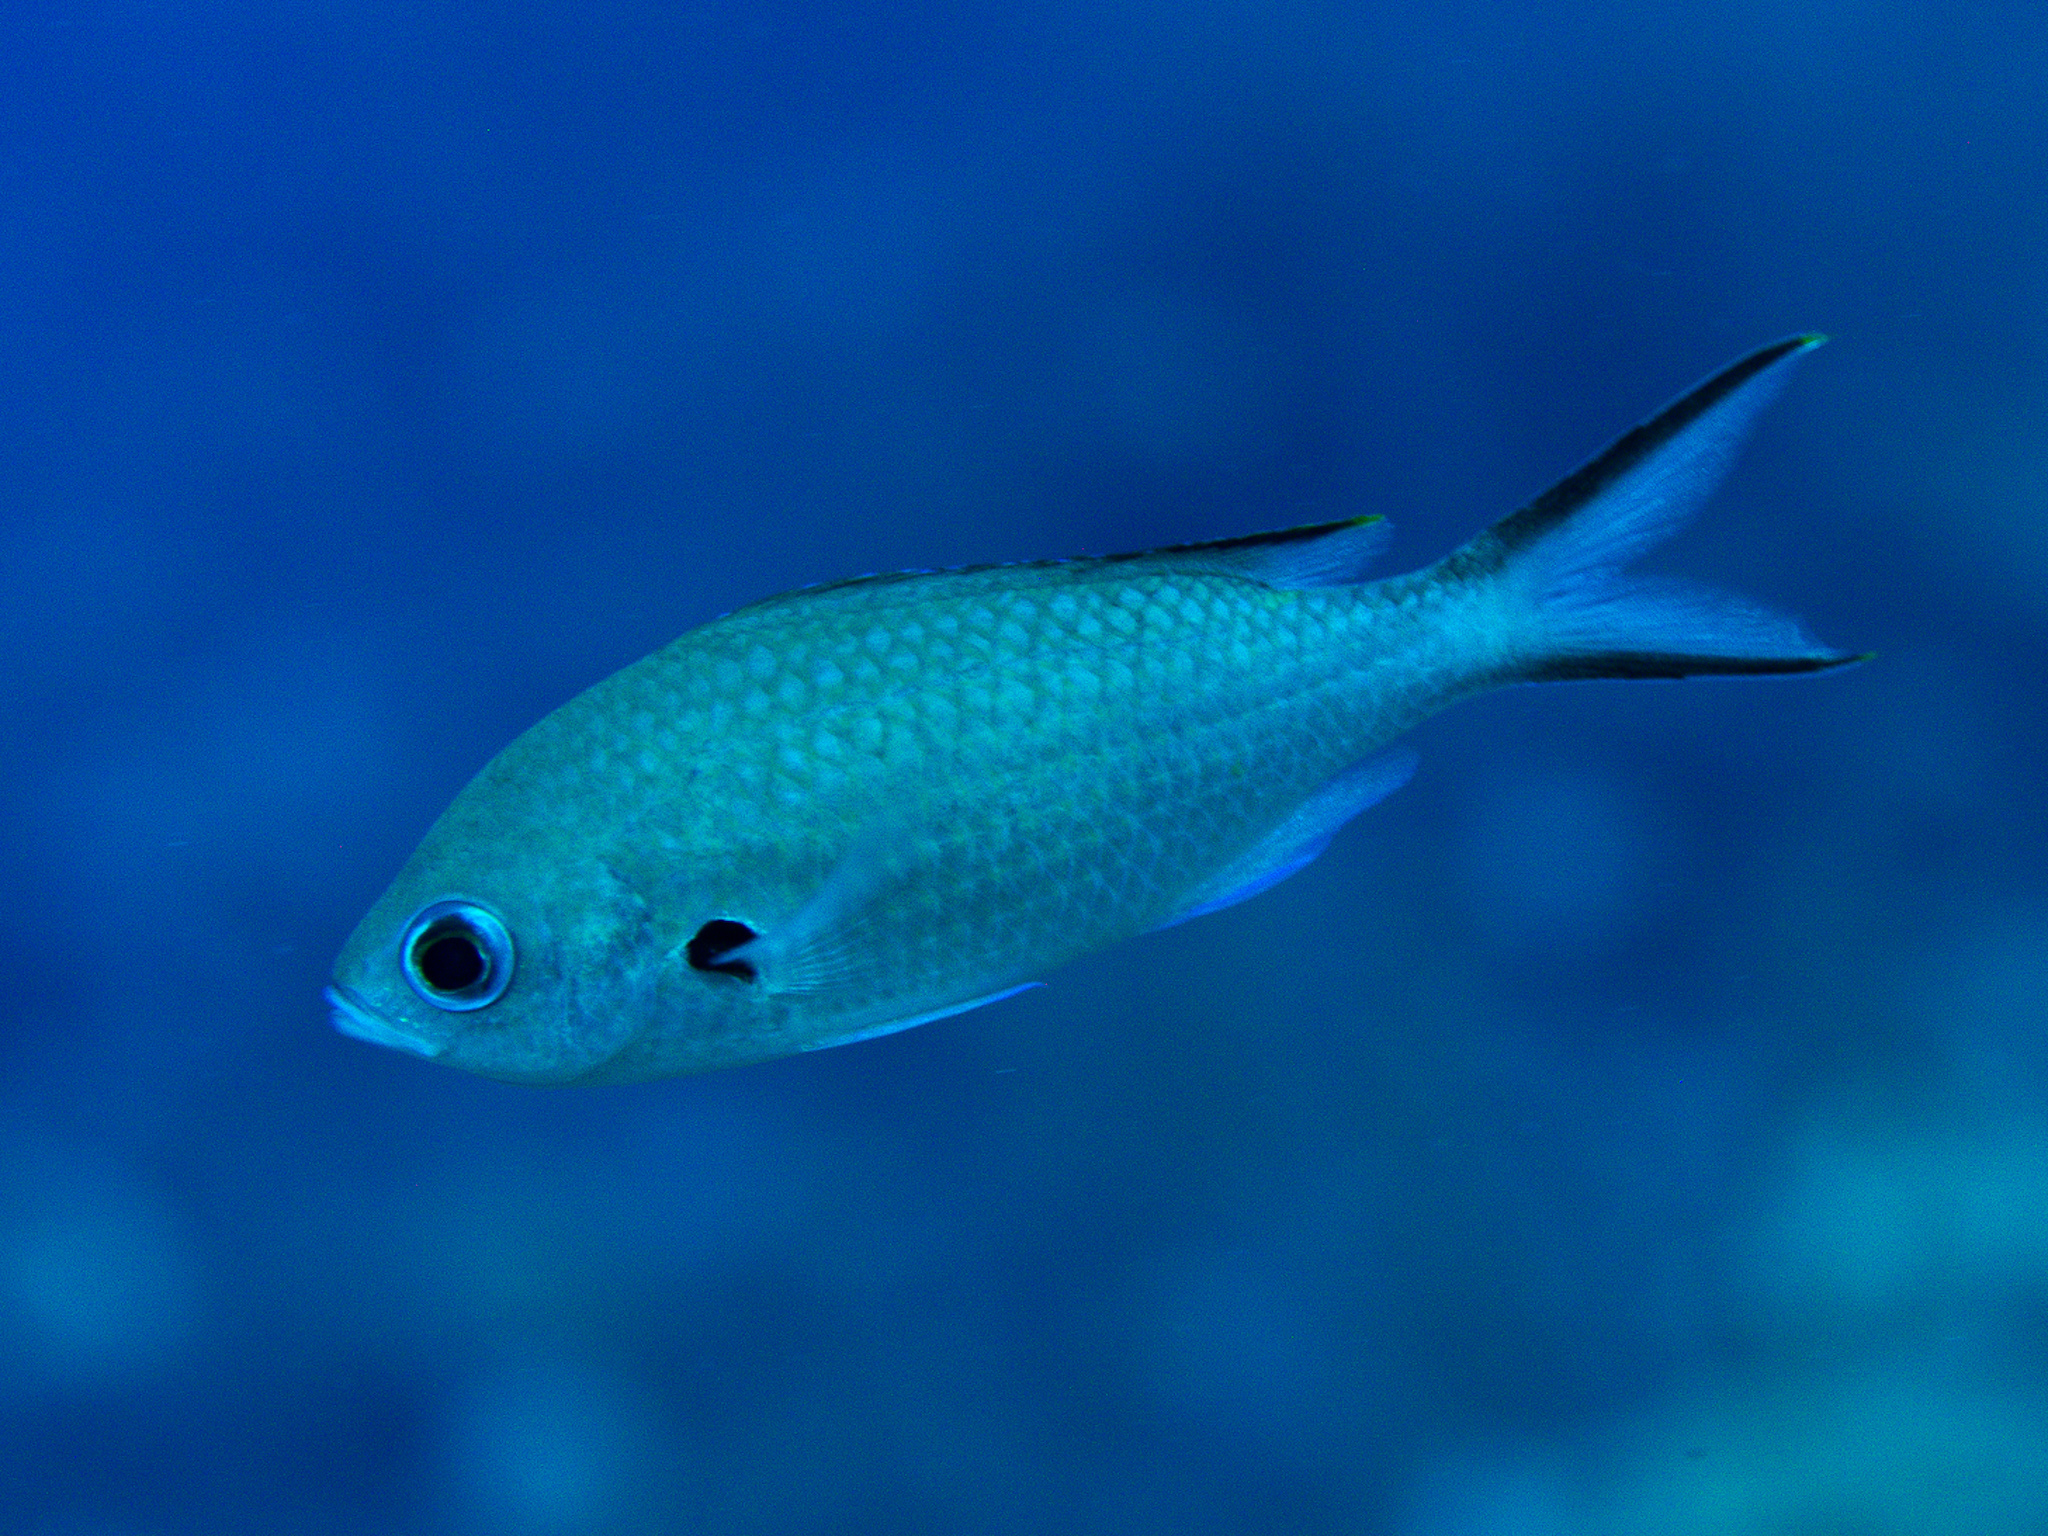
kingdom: Animalia
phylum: Chordata
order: Perciformes
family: Pomacentridae
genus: Chromis
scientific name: Chromis multilineata
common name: Brown chromis
